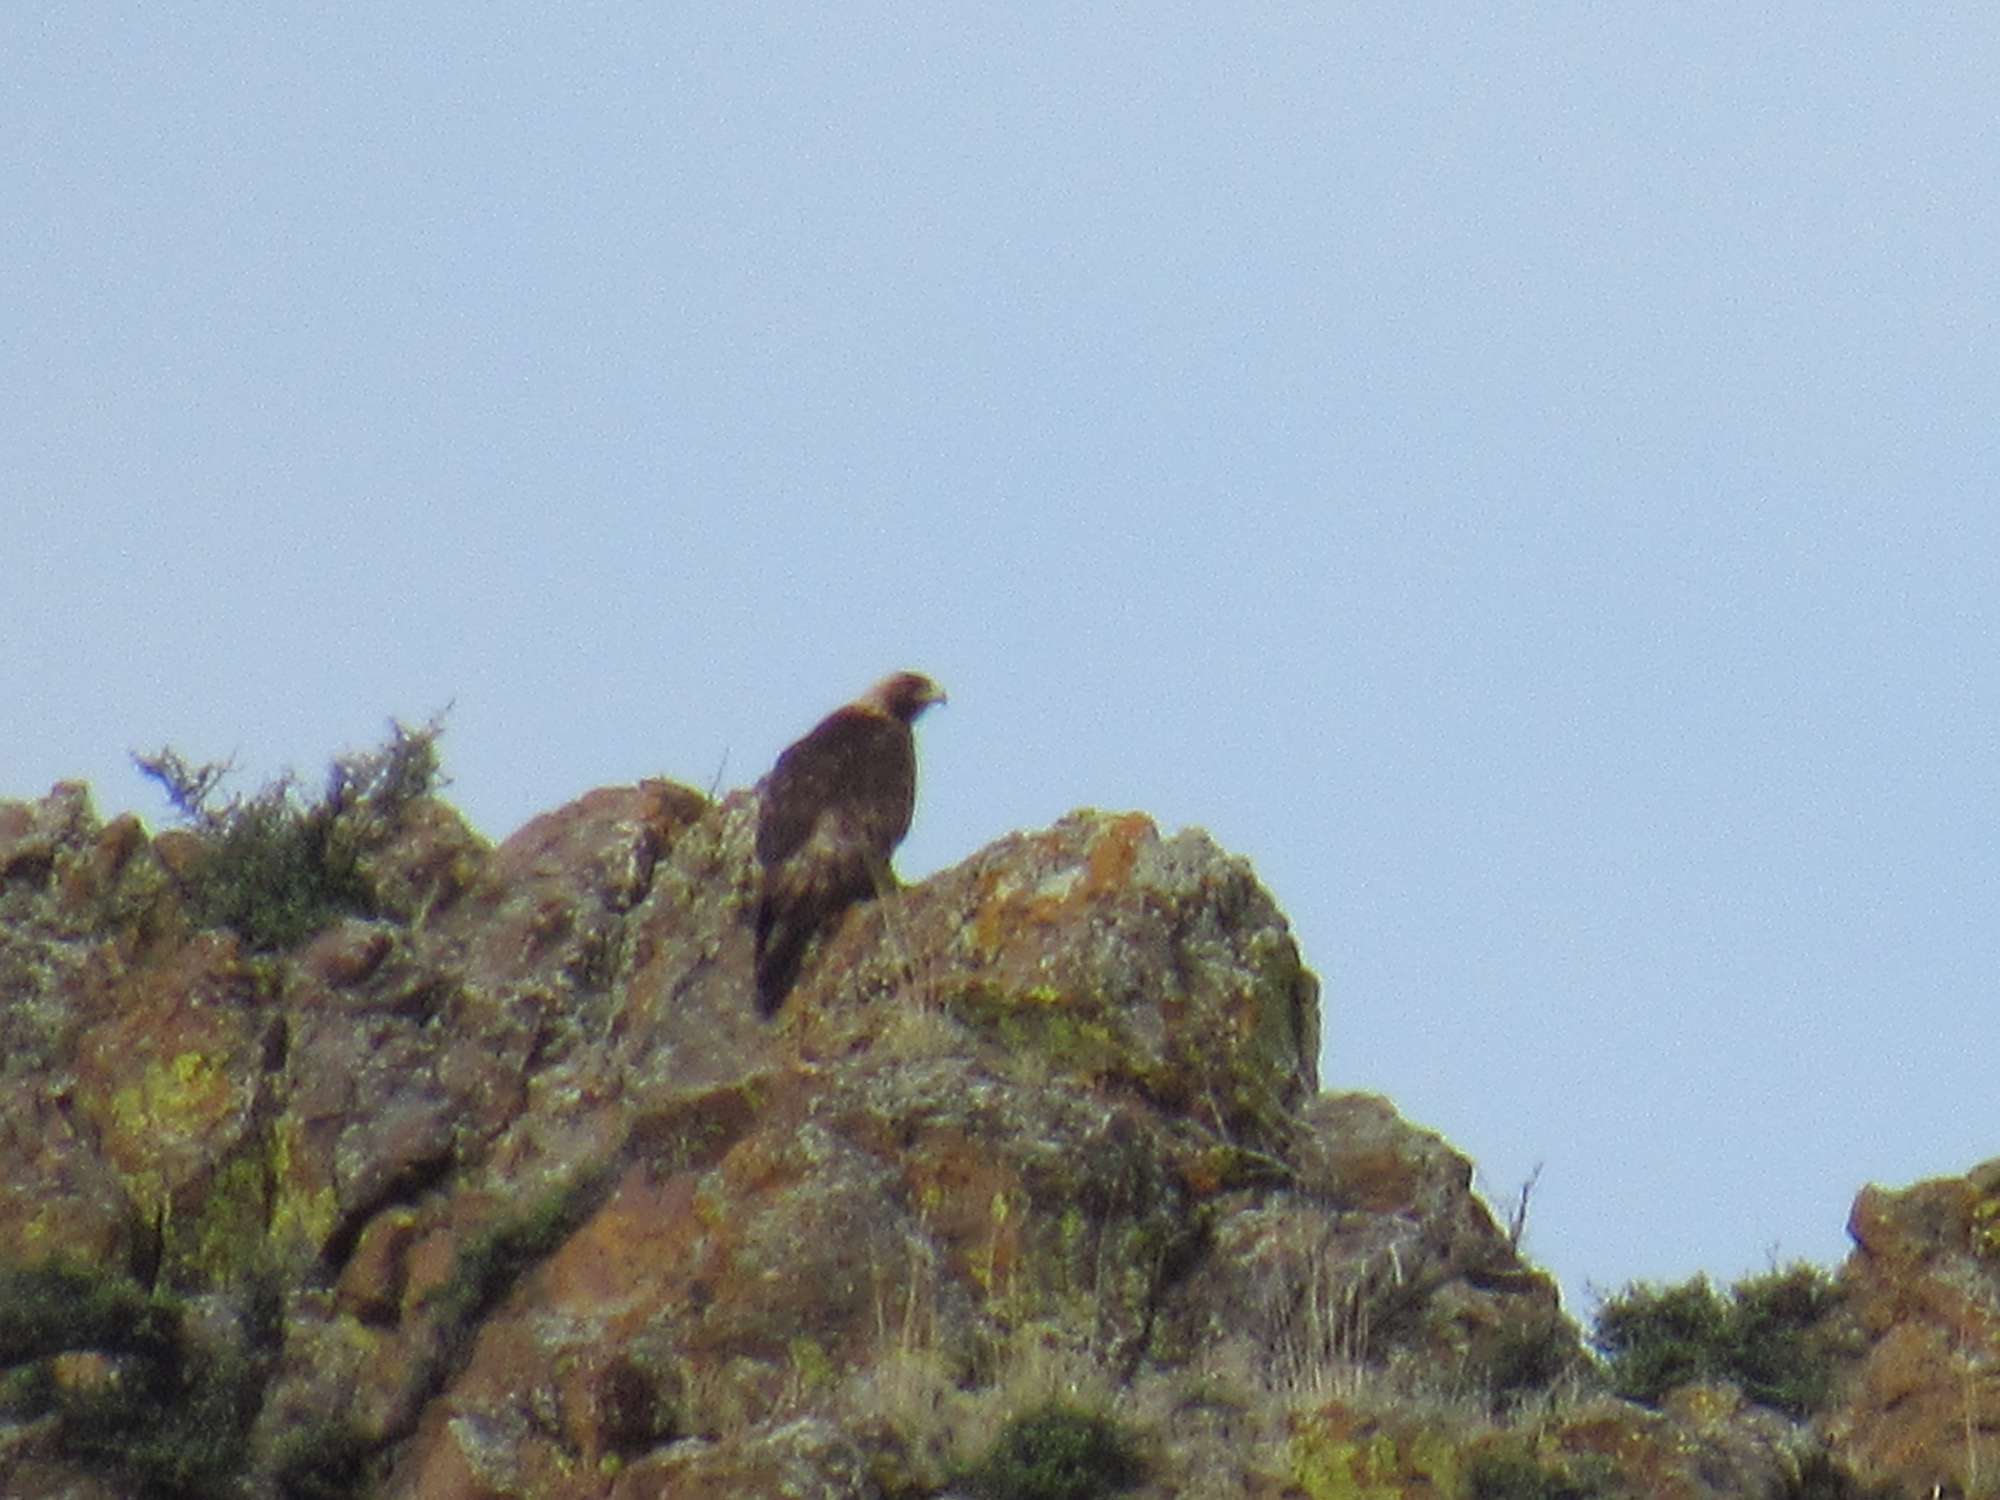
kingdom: Animalia
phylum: Chordata
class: Aves
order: Accipitriformes
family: Accipitridae
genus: Aquila
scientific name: Aquila chrysaetos
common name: Golden eagle
